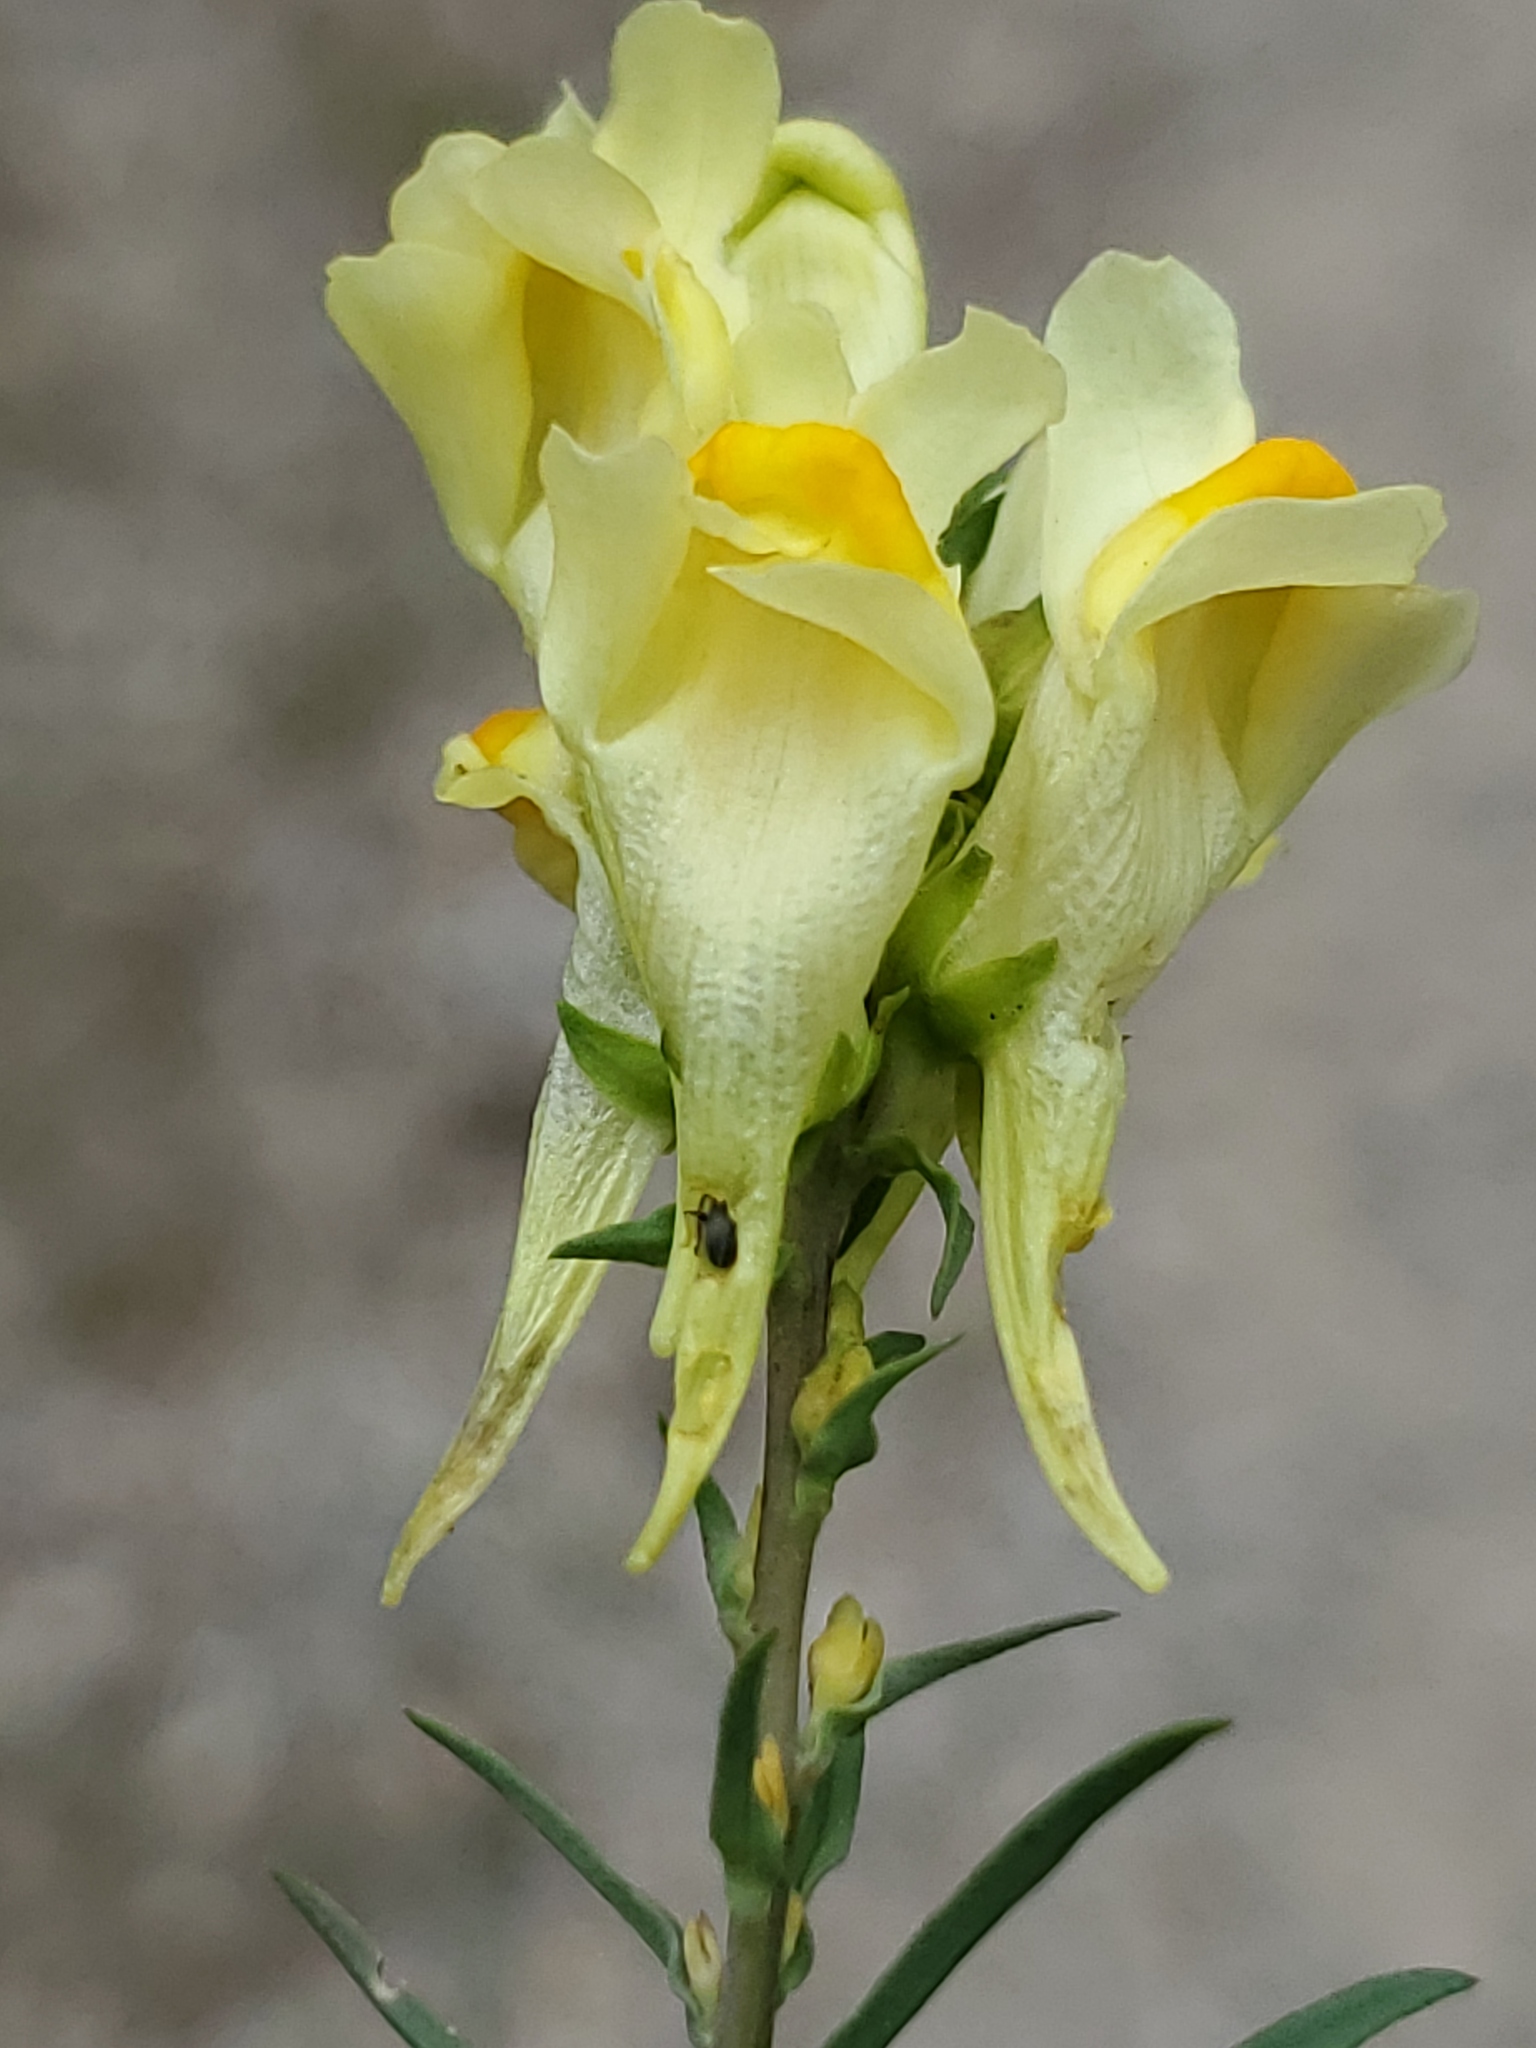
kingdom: Plantae
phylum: Tracheophyta
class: Magnoliopsida
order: Lamiales
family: Plantaginaceae
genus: Linaria
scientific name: Linaria vulgaris
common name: Butter and eggs
